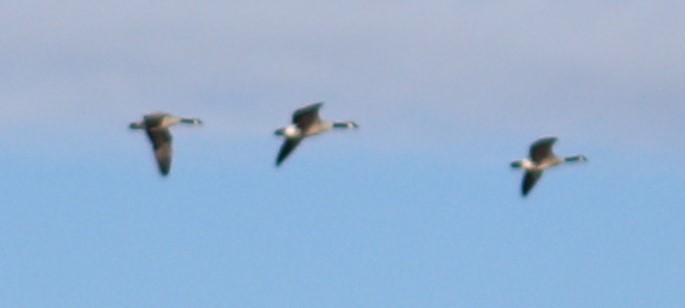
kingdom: Animalia
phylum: Chordata
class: Aves
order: Anseriformes
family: Anatidae
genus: Branta
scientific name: Branta canadensis
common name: Canada goose
